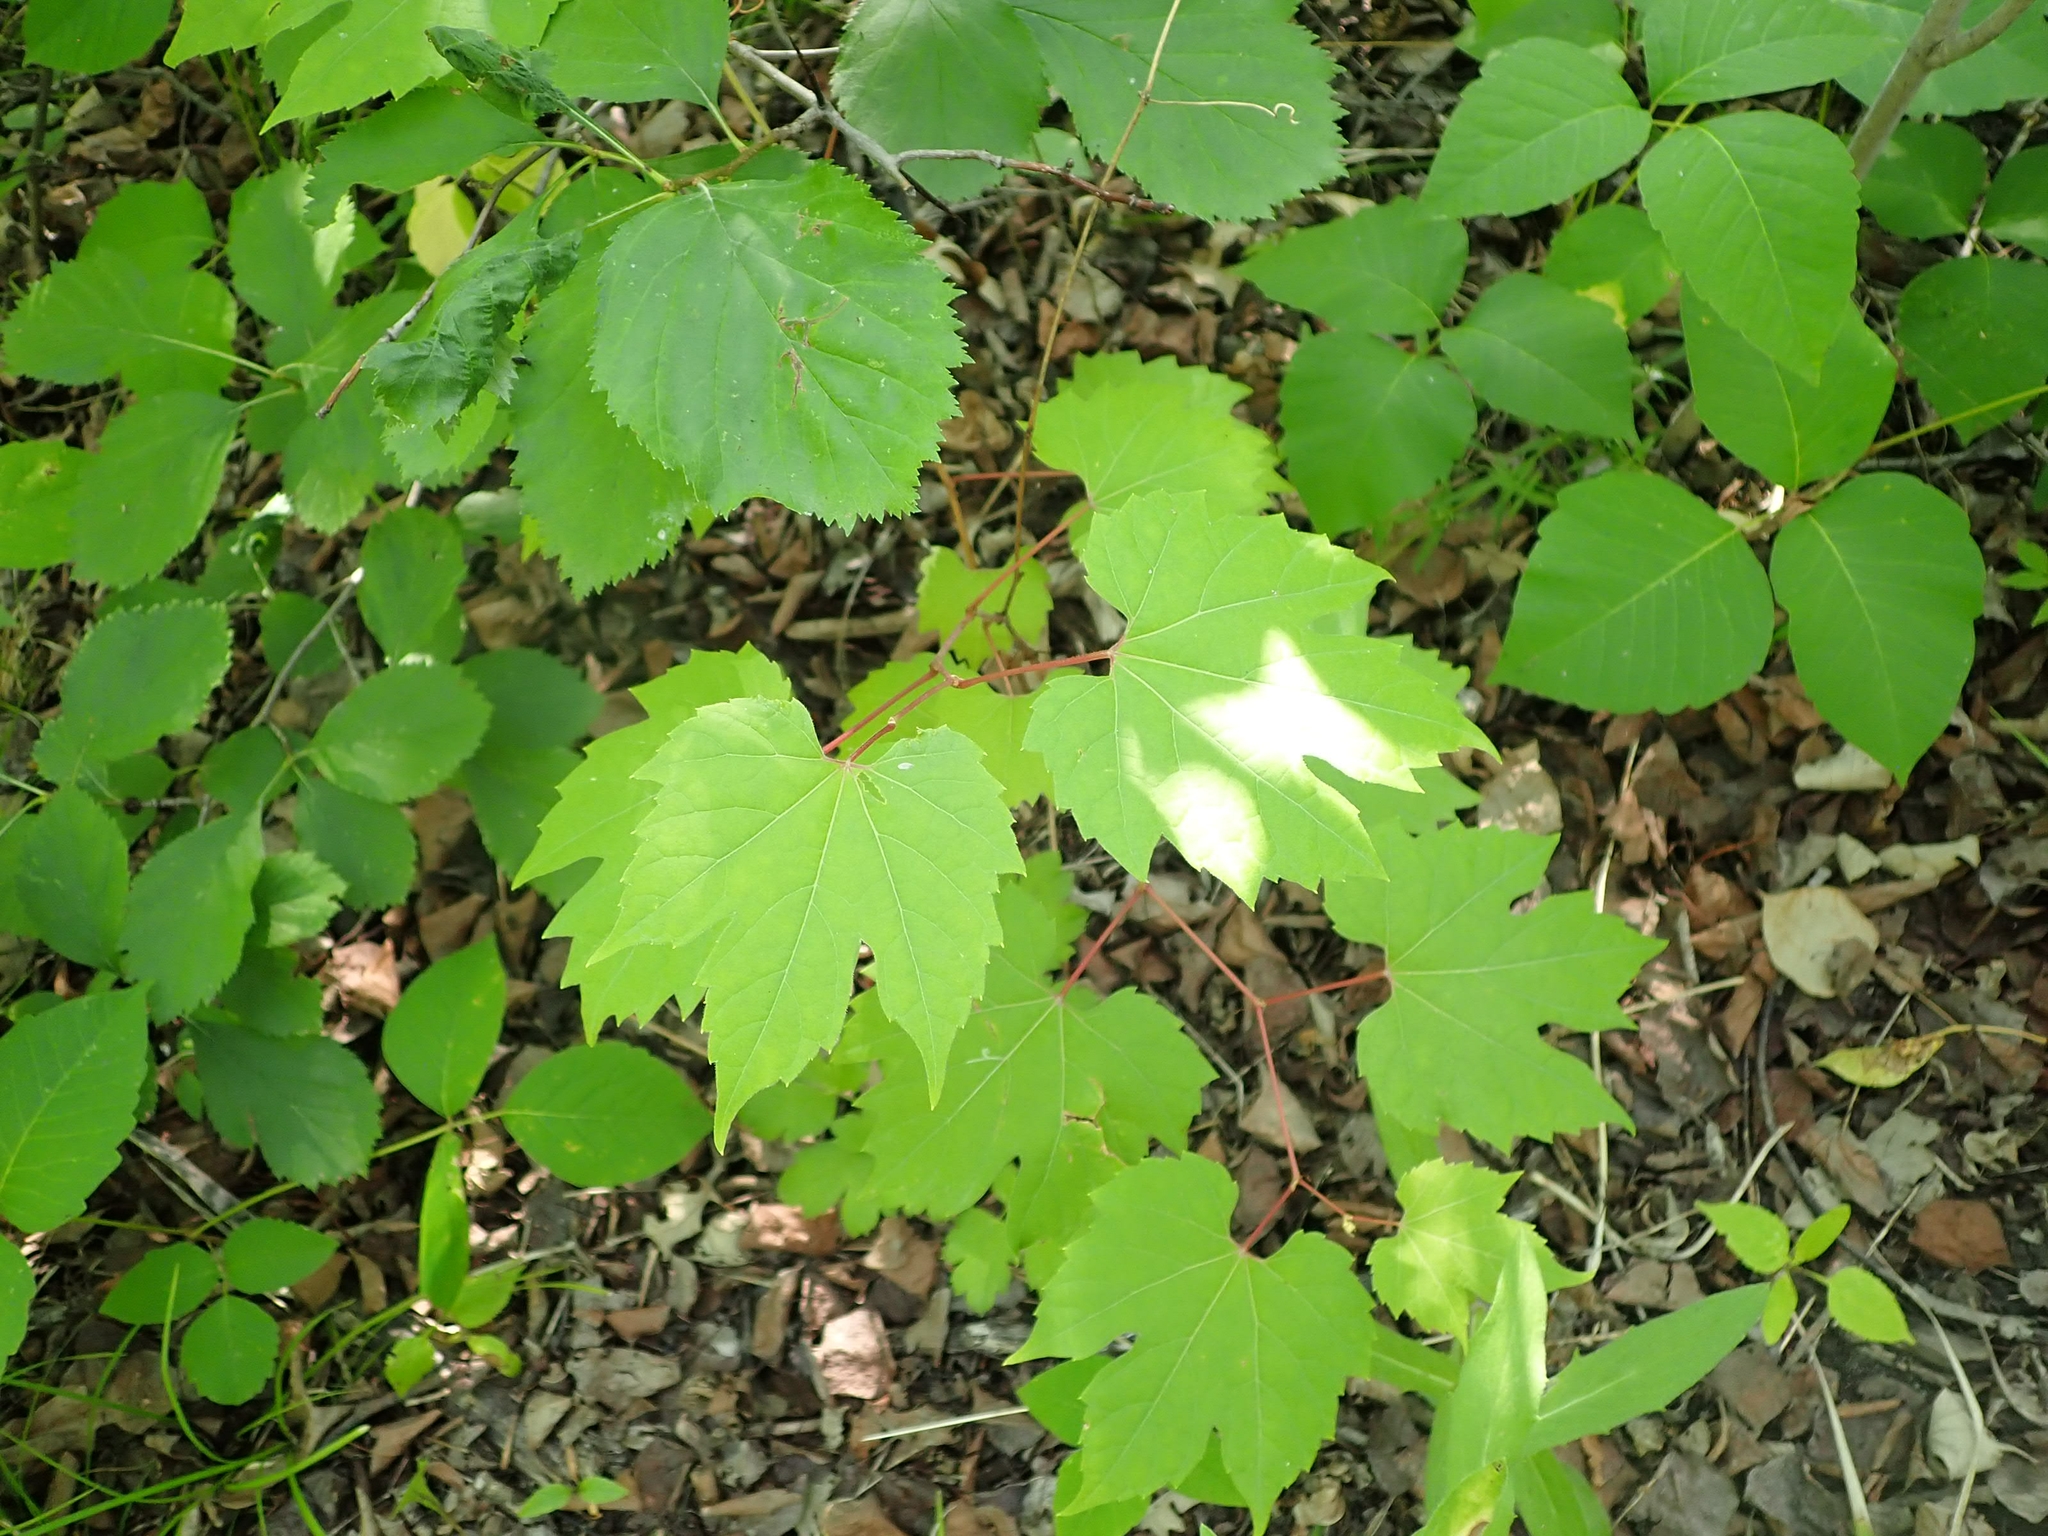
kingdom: Plantae
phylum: Tracheophyta
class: Magnoliopsida
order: Vitales
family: Vitaceae
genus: Vitis
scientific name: Vitis riparia
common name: Frost grape
